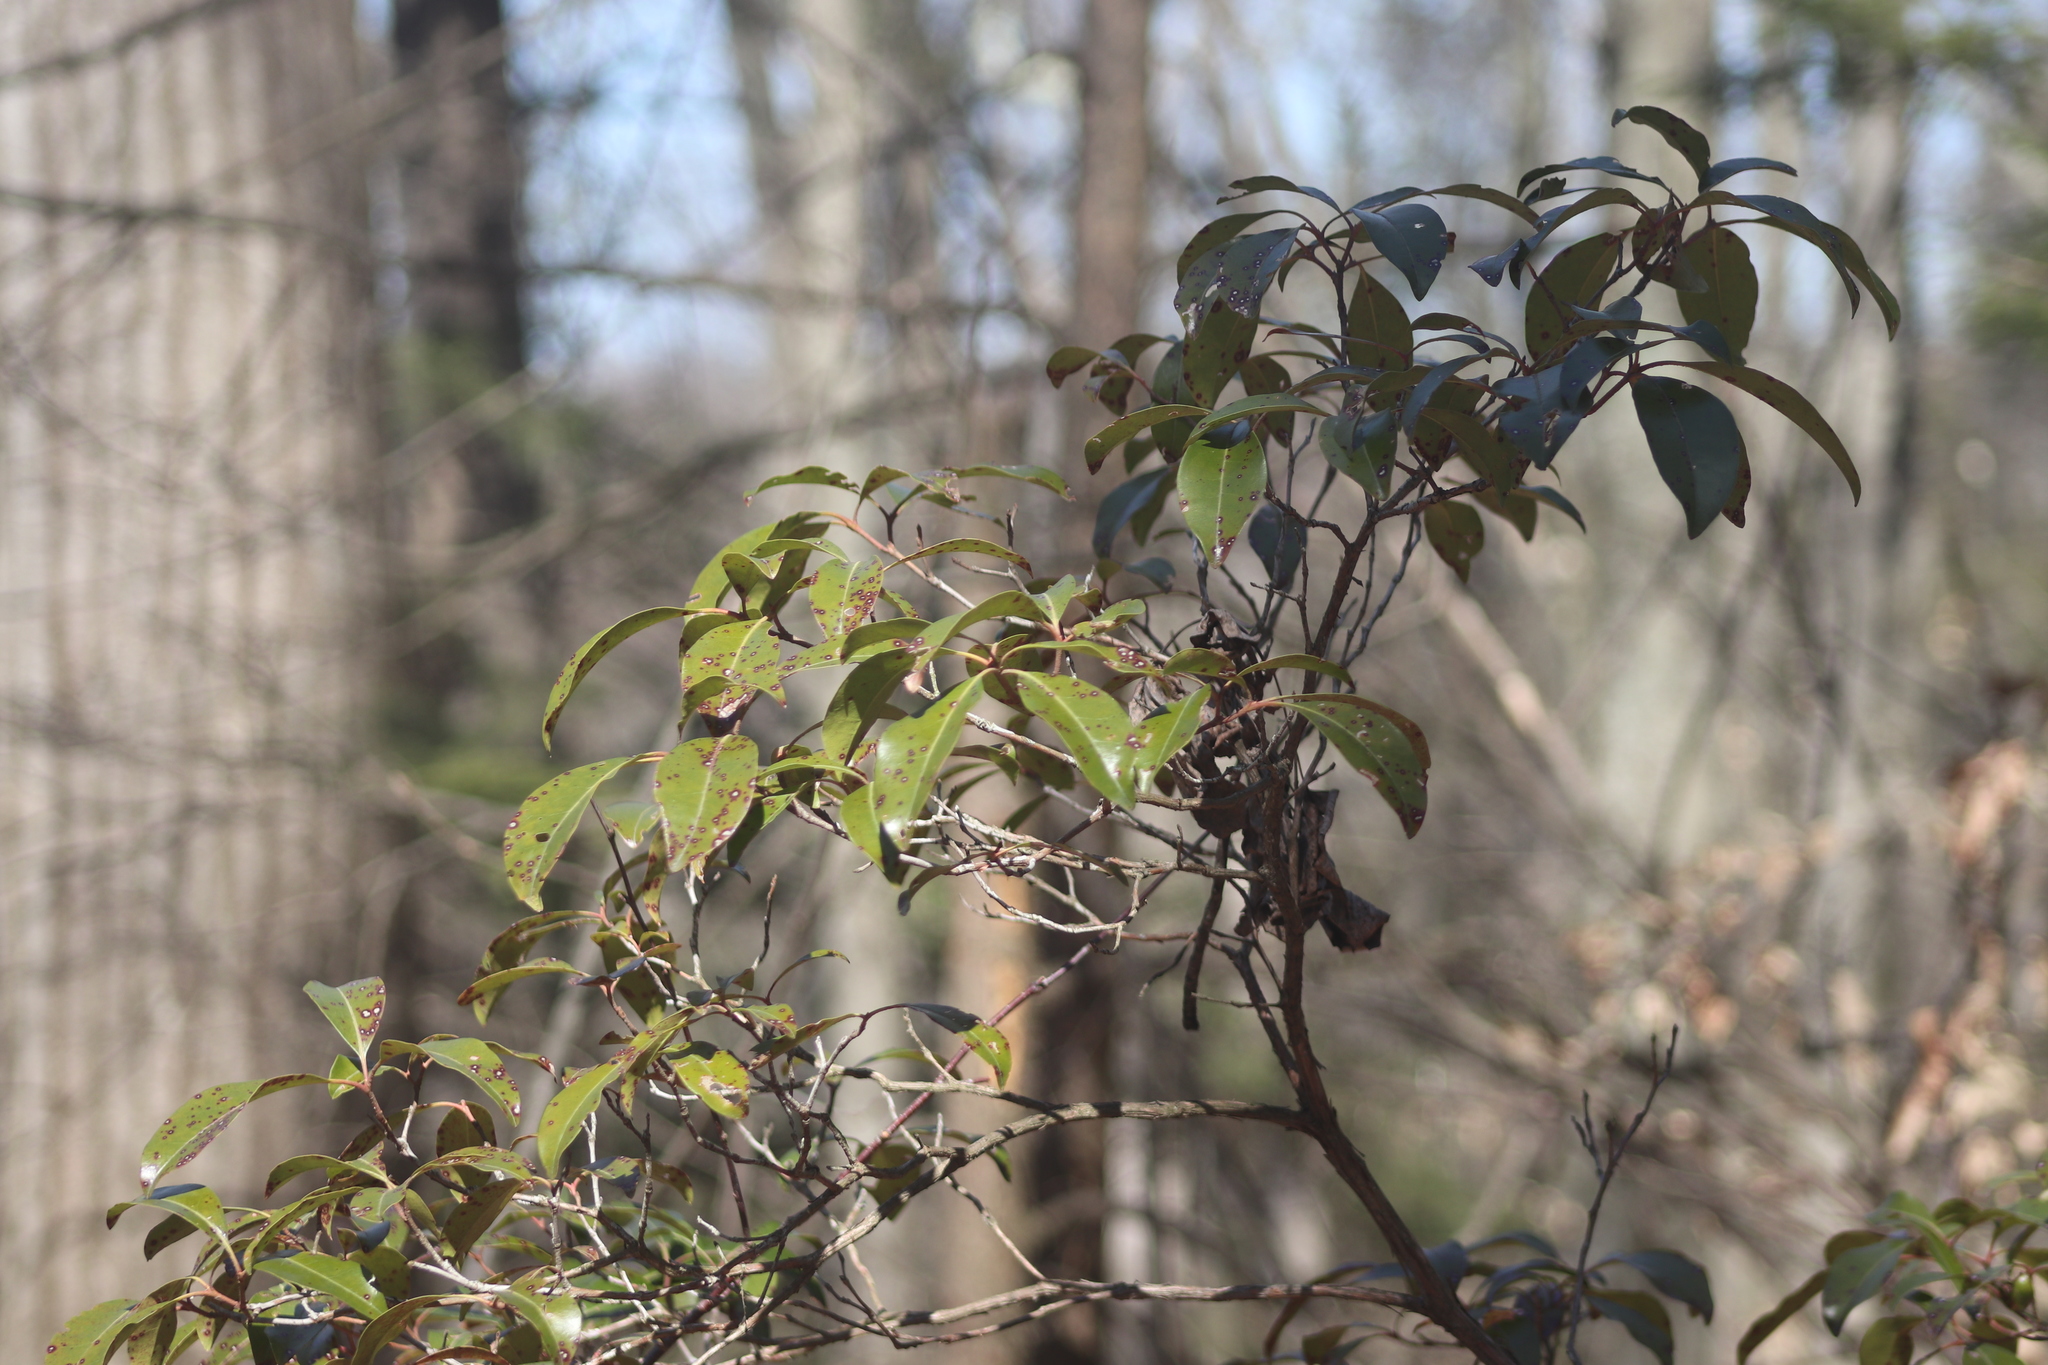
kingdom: Plantae
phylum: Tracheophyta
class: Magnoliopsida
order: Ericales
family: Ericaceae
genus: Kalmia
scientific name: Kalmia latifolia
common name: Mountain-laurel
